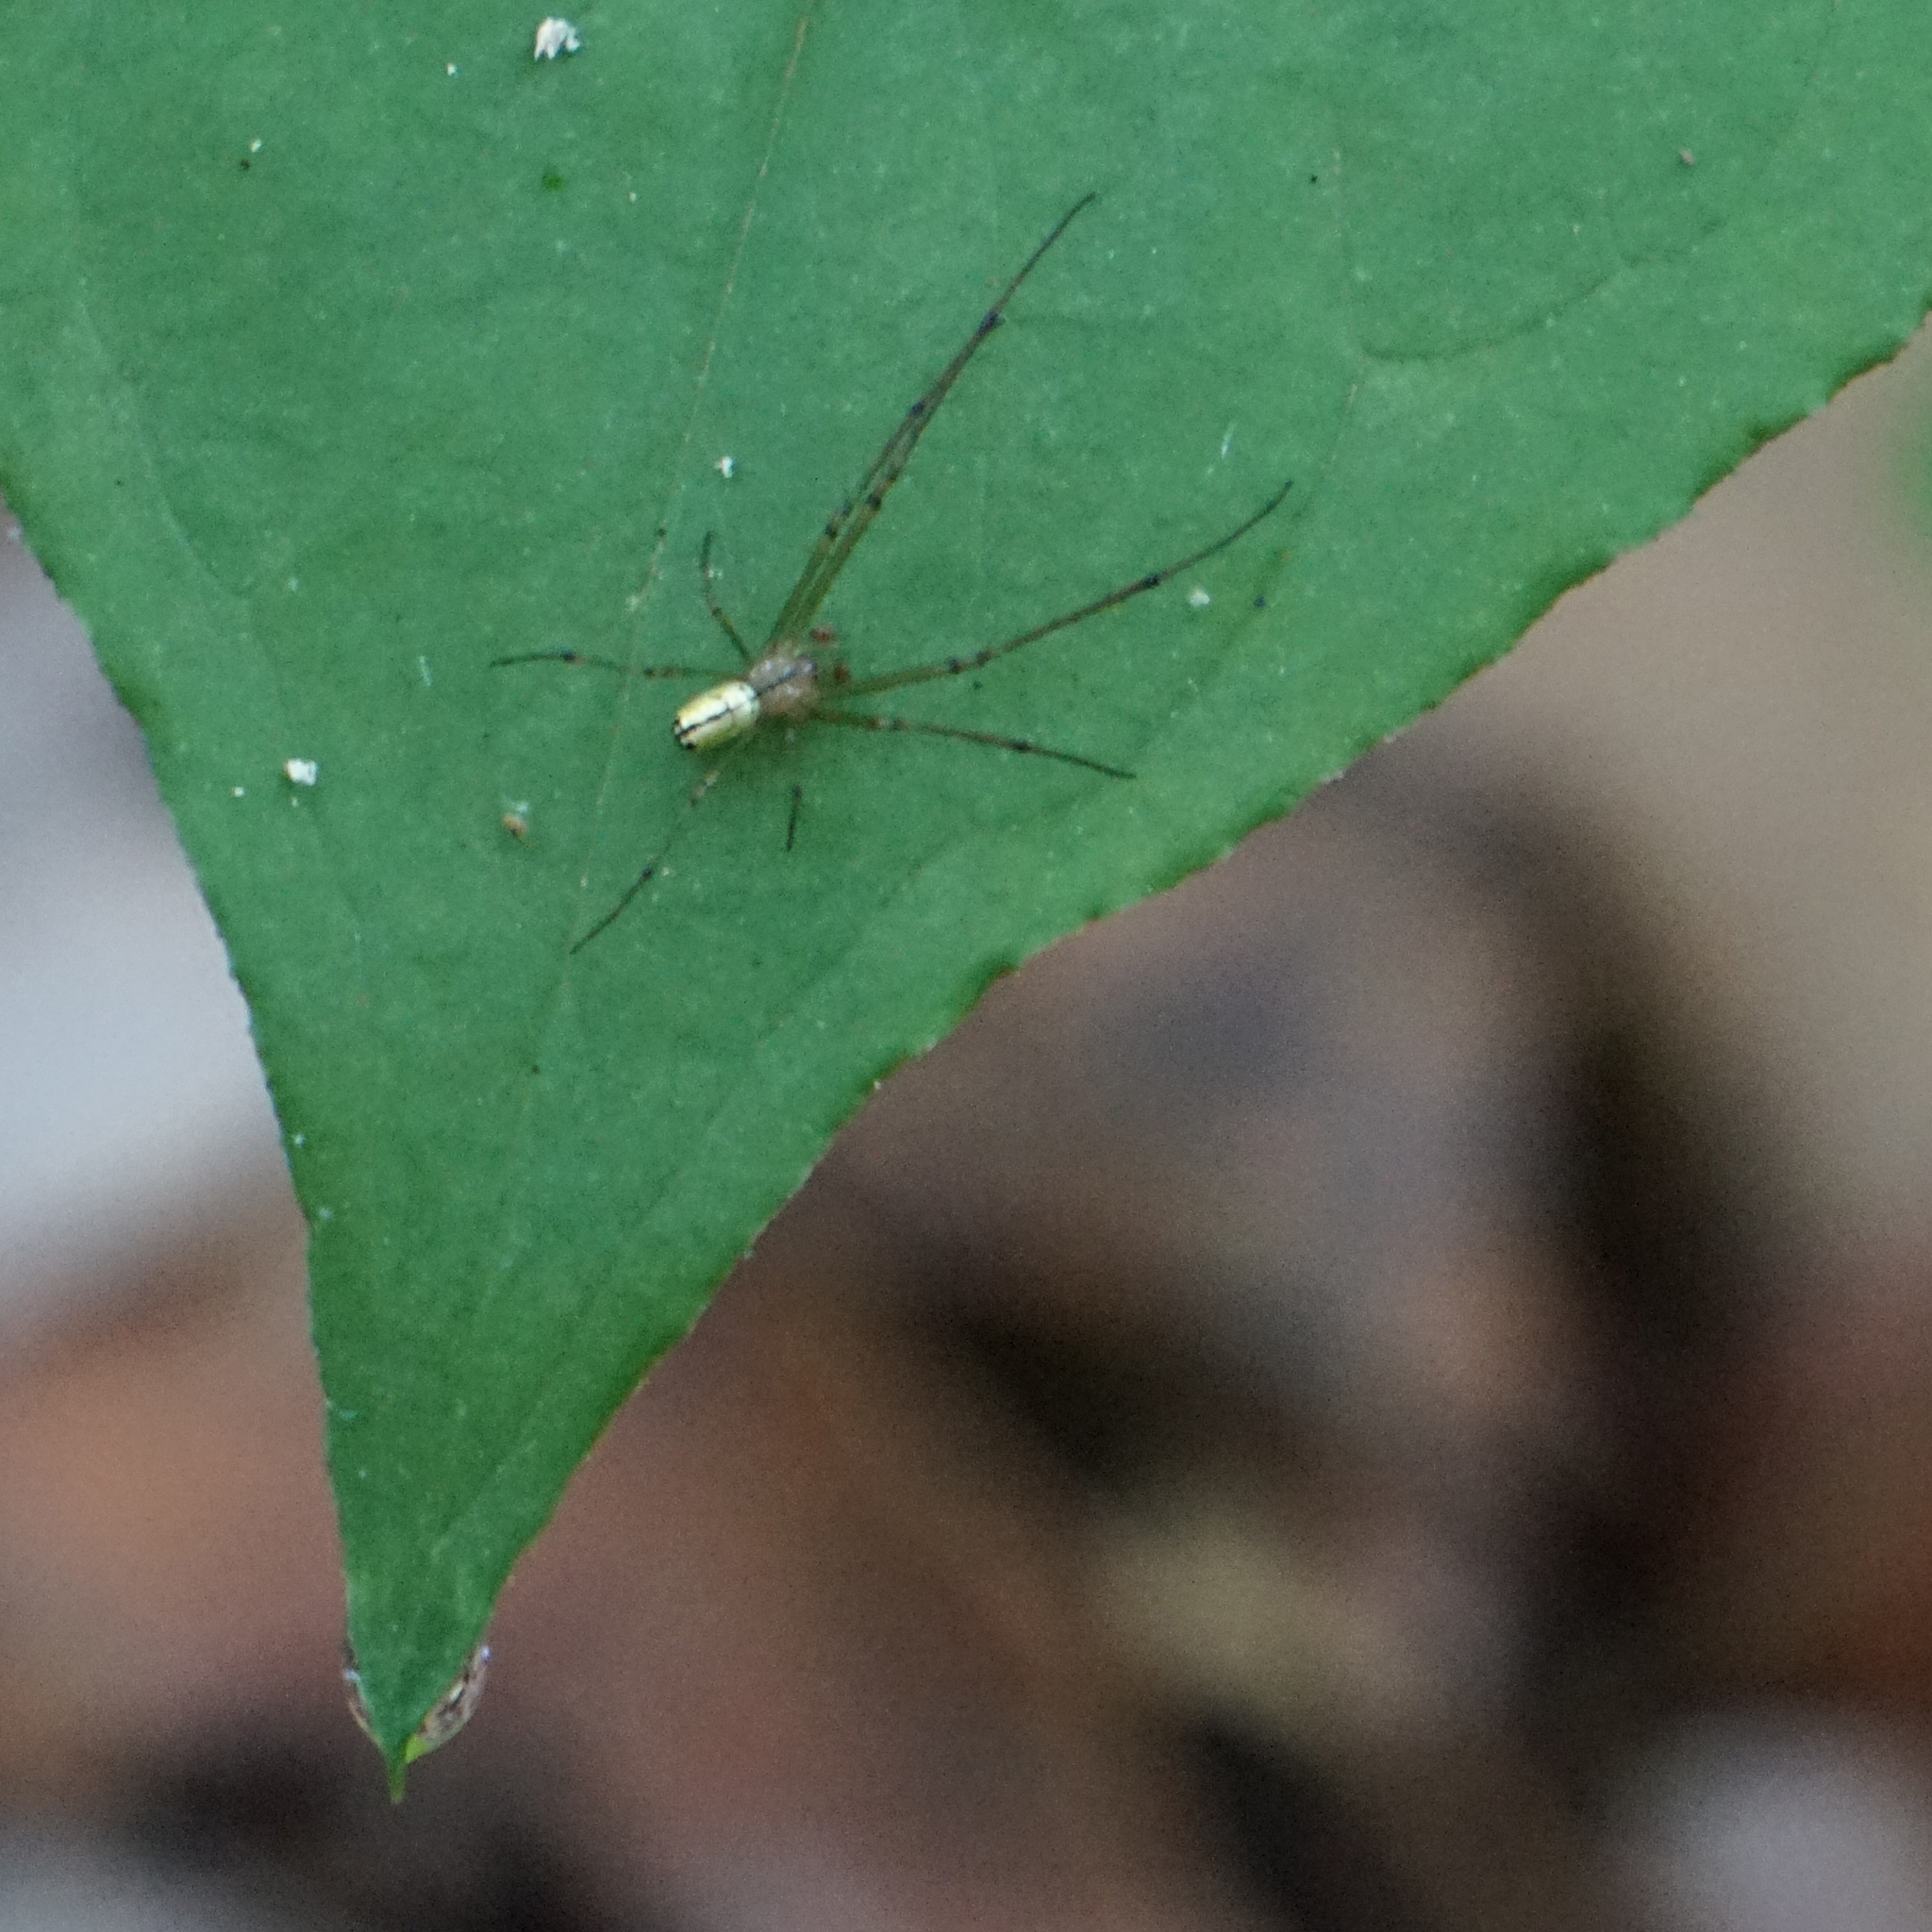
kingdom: Animalia
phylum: Arthropoda
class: Arachnida
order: Araneae
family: Tetragnathidae
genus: Leucauge
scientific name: Leucauge venusta
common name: Longjawed orb weavers
